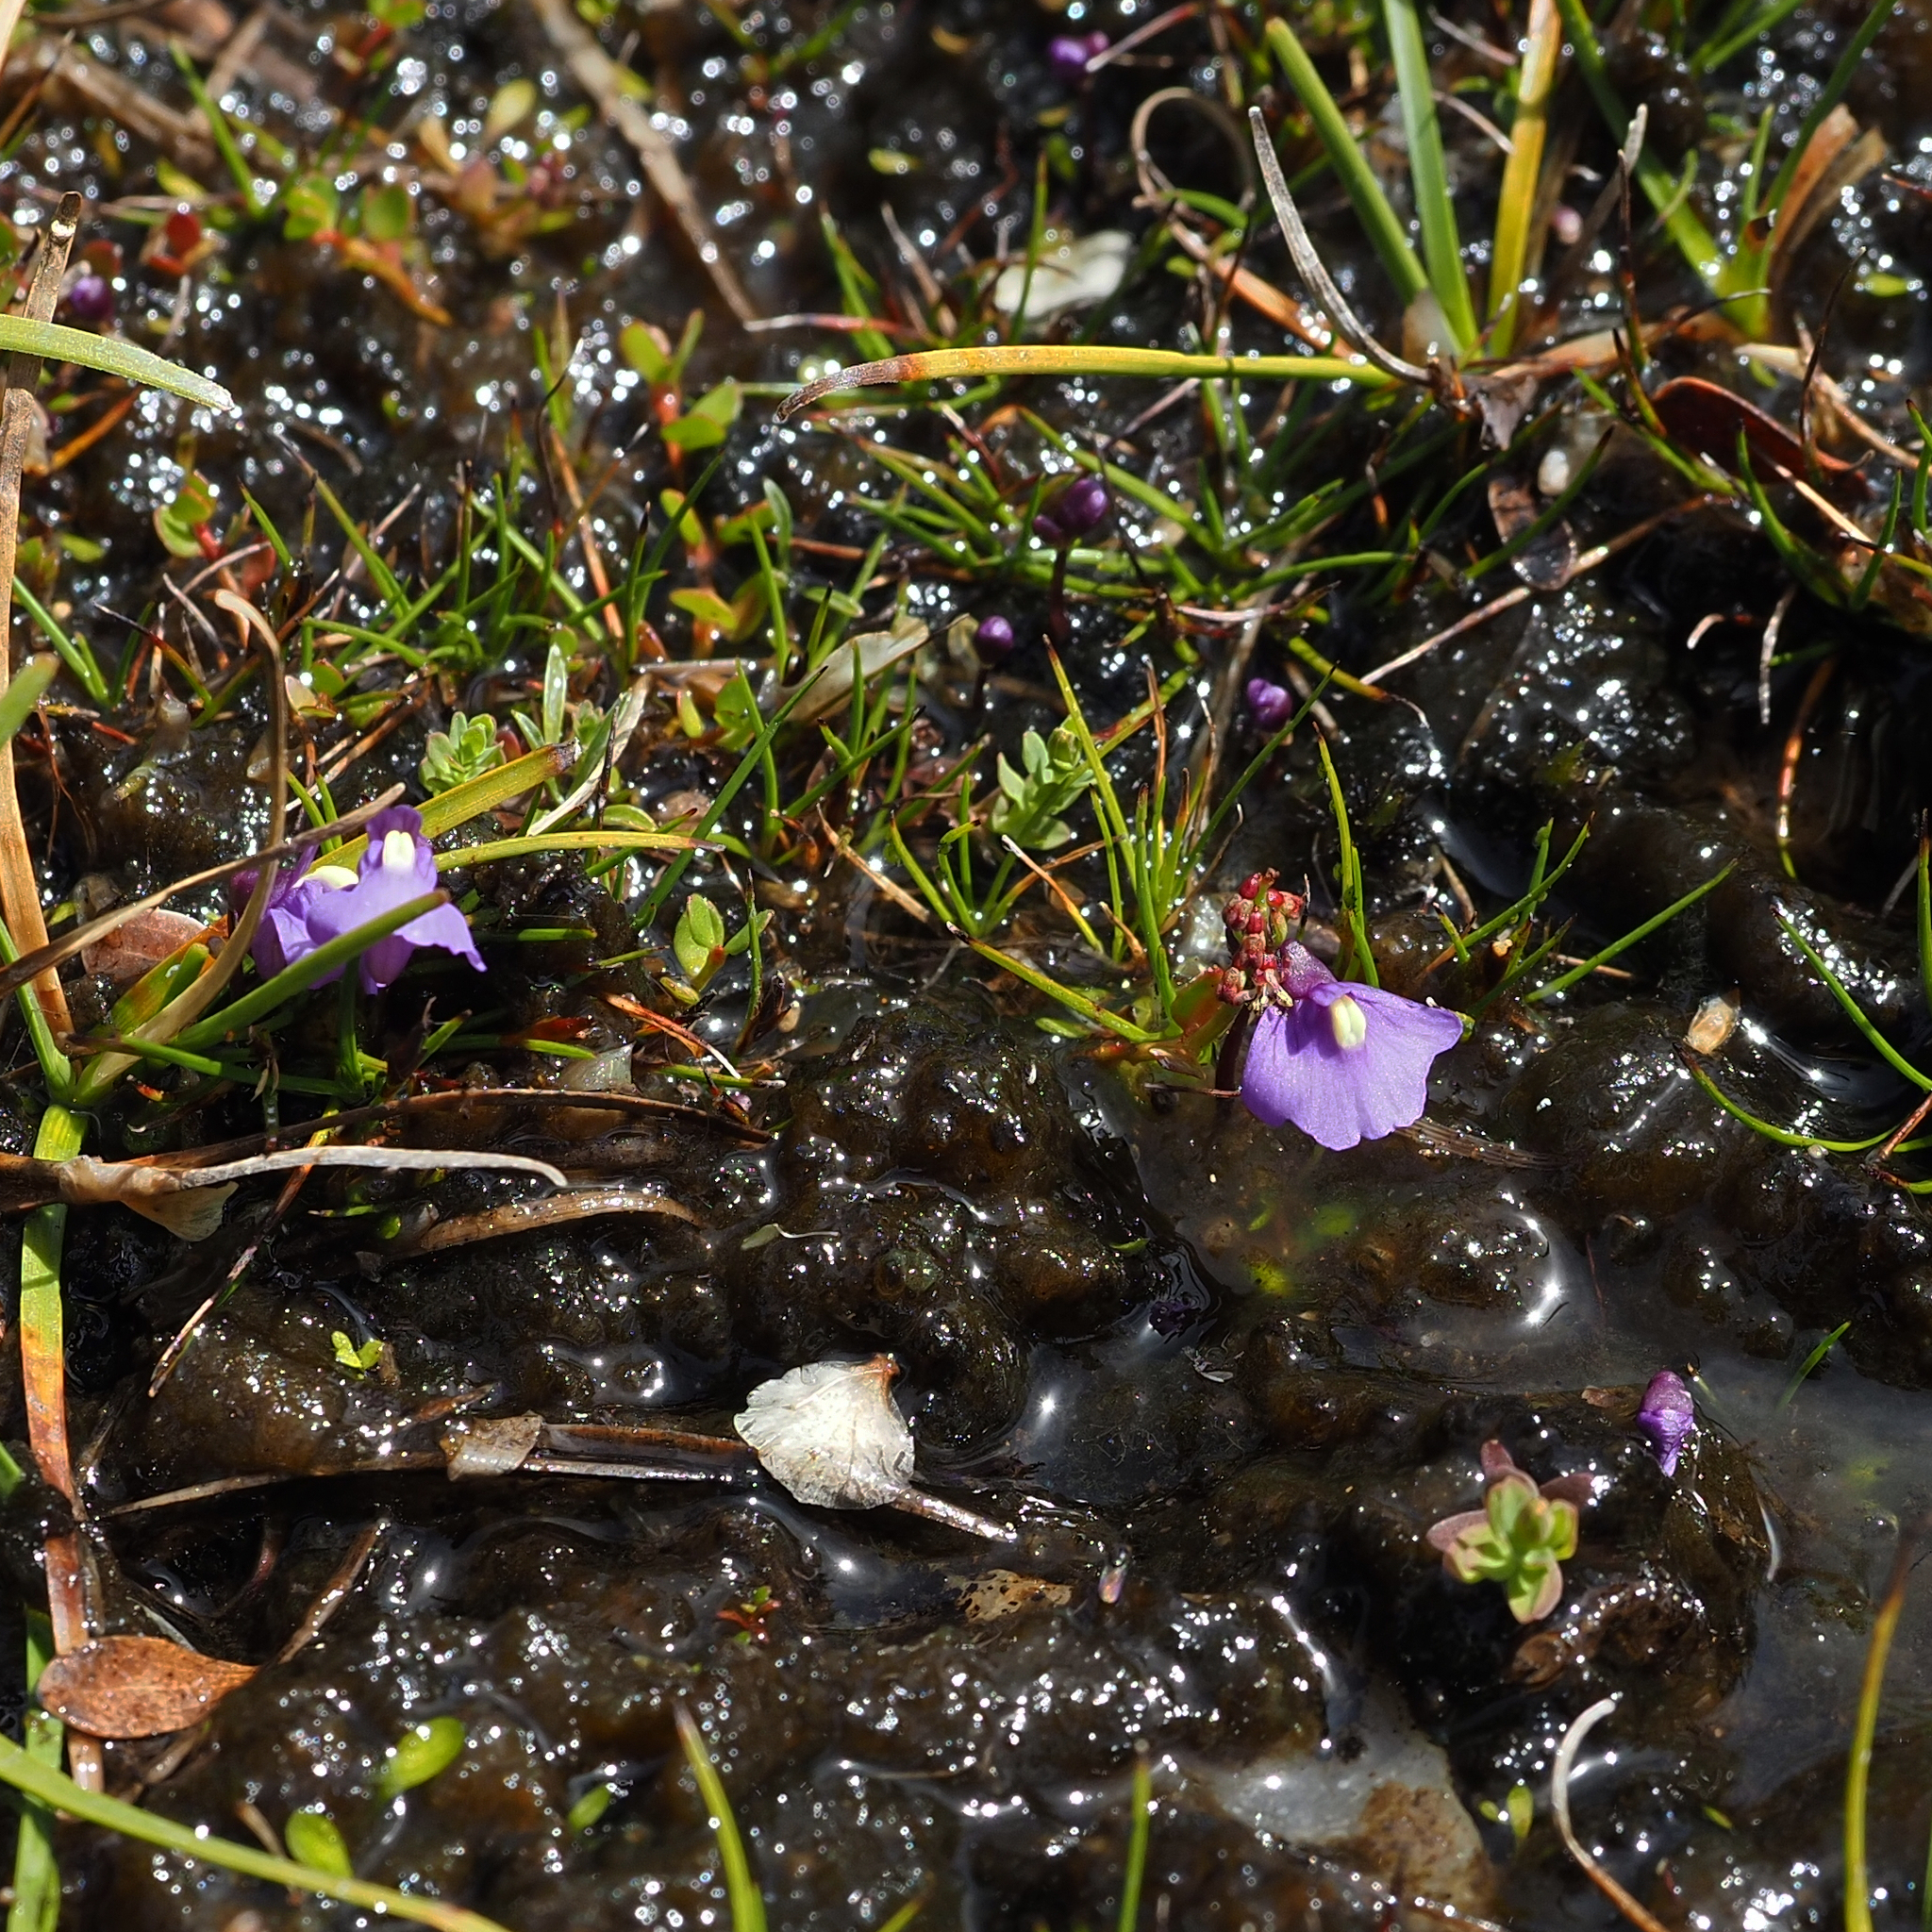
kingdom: Plantae
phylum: Tracheophyta
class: Magnoliopsida
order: Lamiales
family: Lentibulariaceae
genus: Utricularia
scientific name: Utricularia dichotoma
